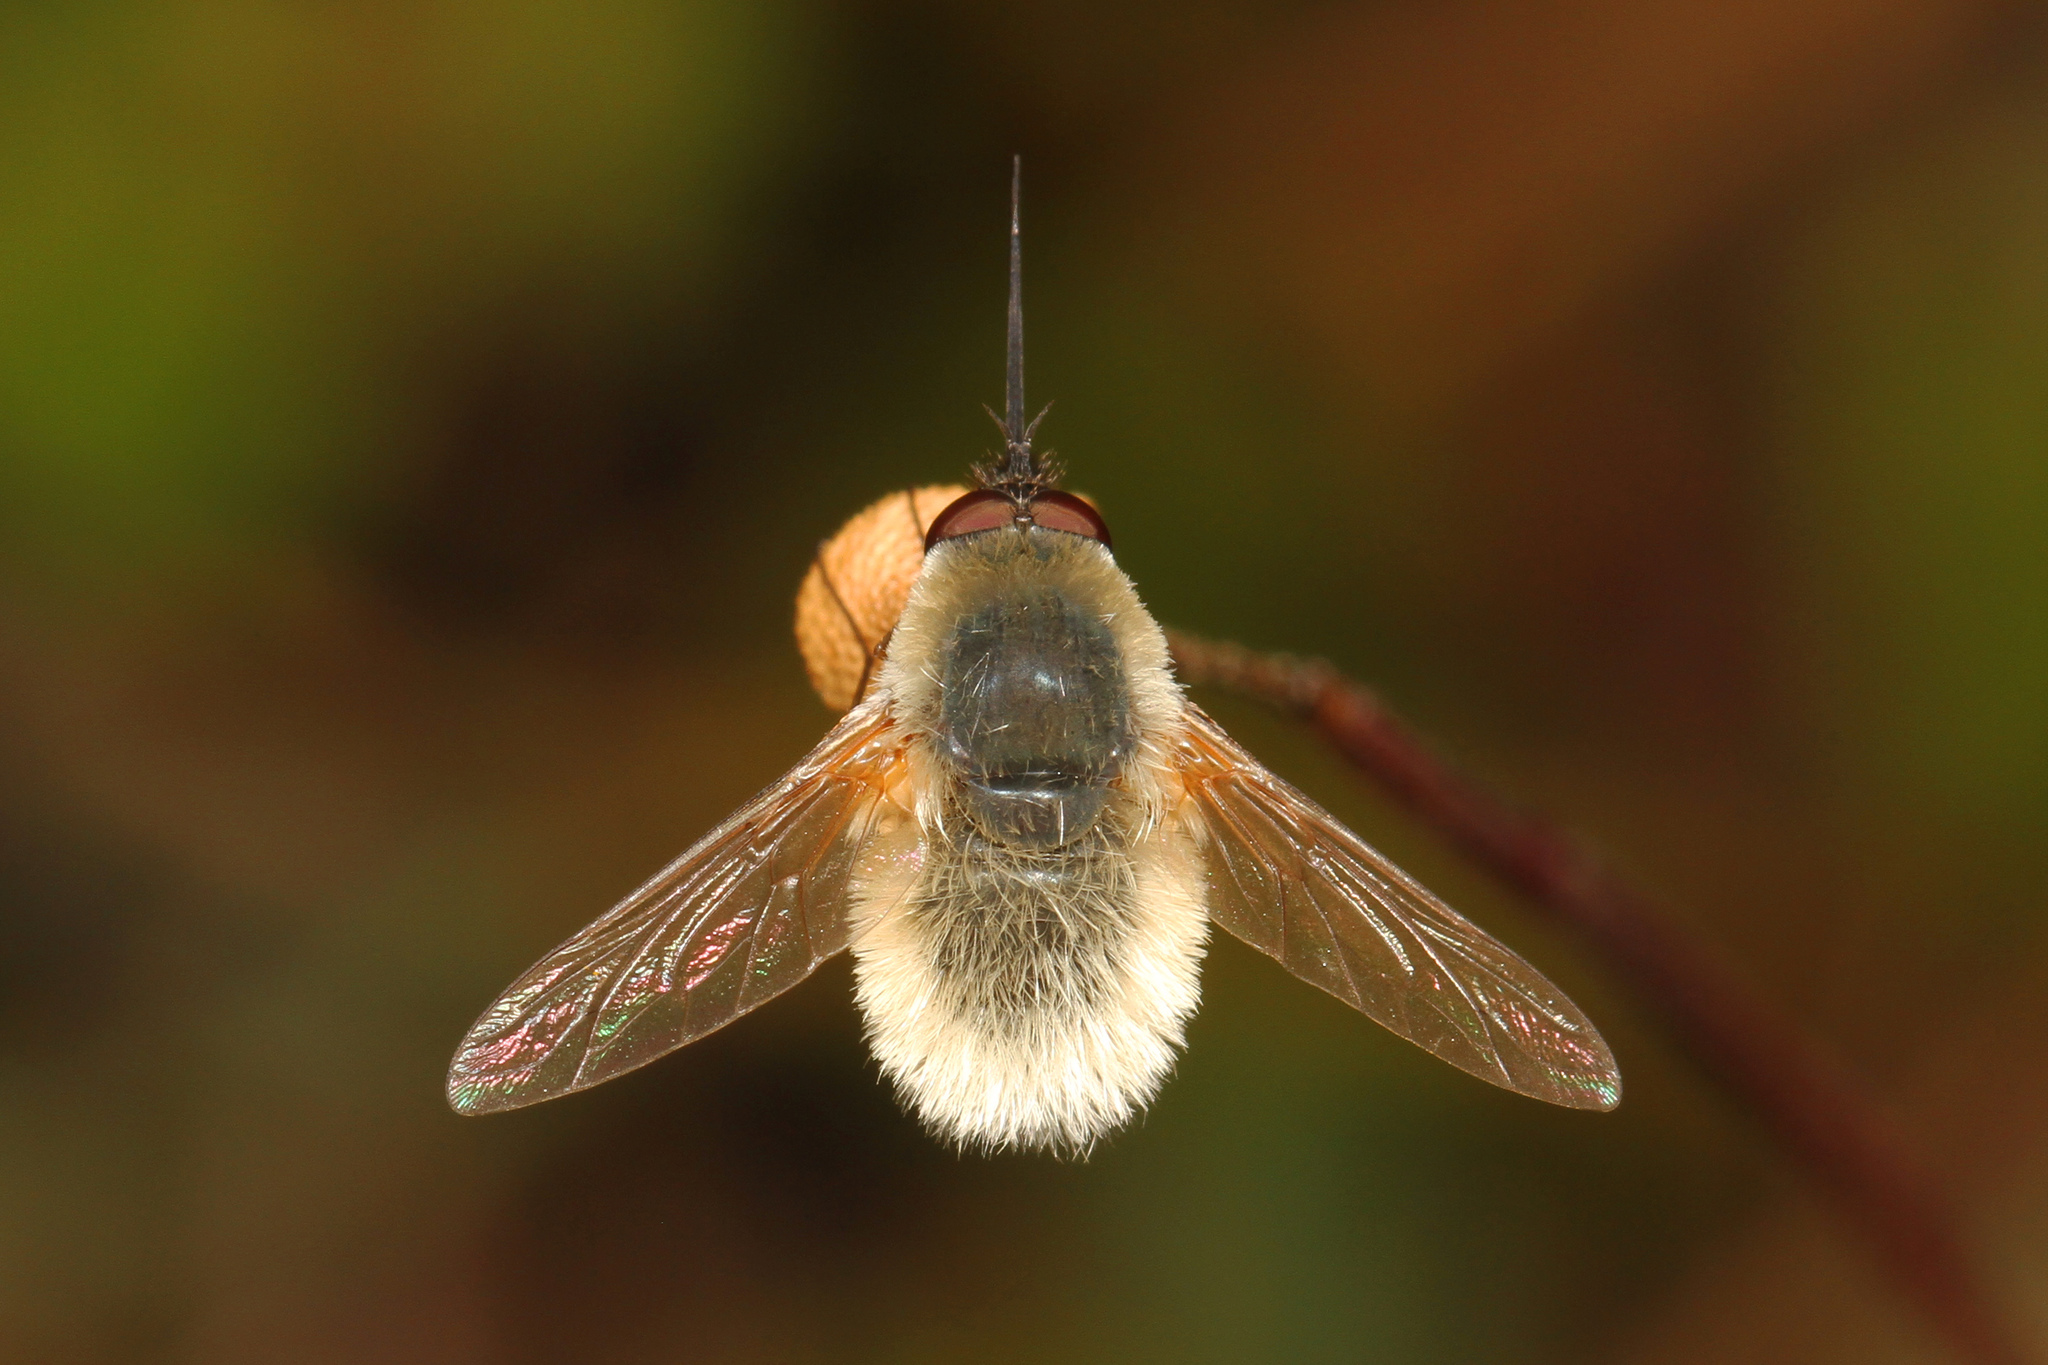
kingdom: Animalia
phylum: Arthropoda
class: Insecta
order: Diptera
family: Bombyliidae
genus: Systoechus
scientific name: Systoechus candidulus
